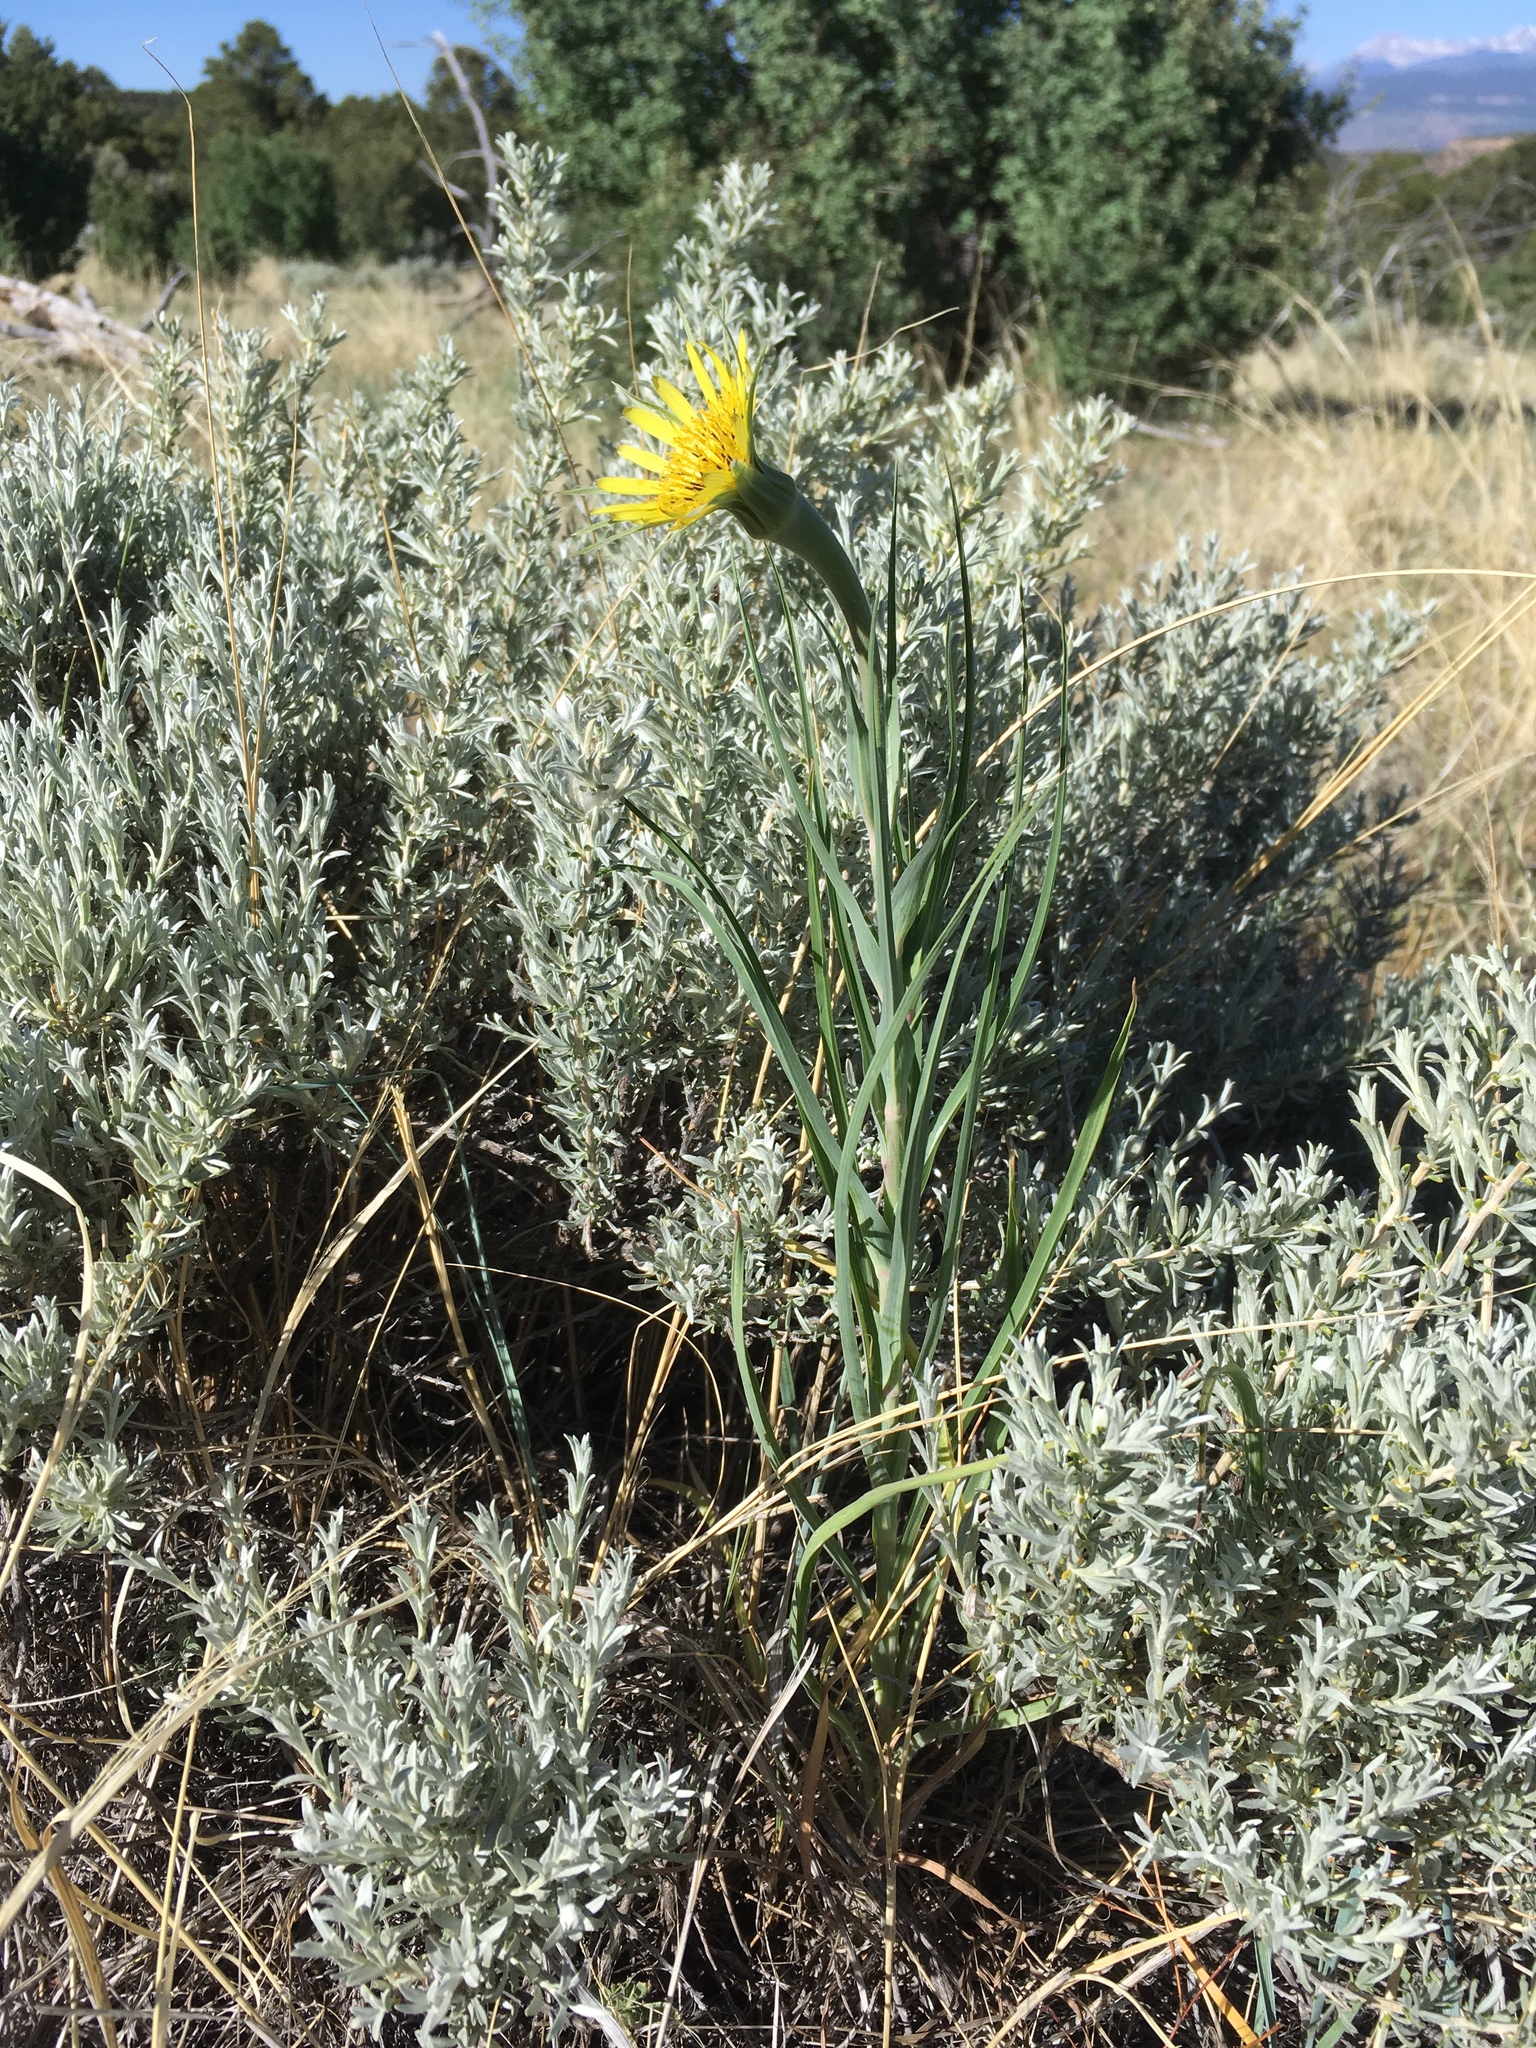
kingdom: Plantae
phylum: Tracheophyta
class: Magnoliopsida
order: Asterales
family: Asteraceae
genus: Tragopogon
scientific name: Tragopogon dubius
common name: Yellow salsify
